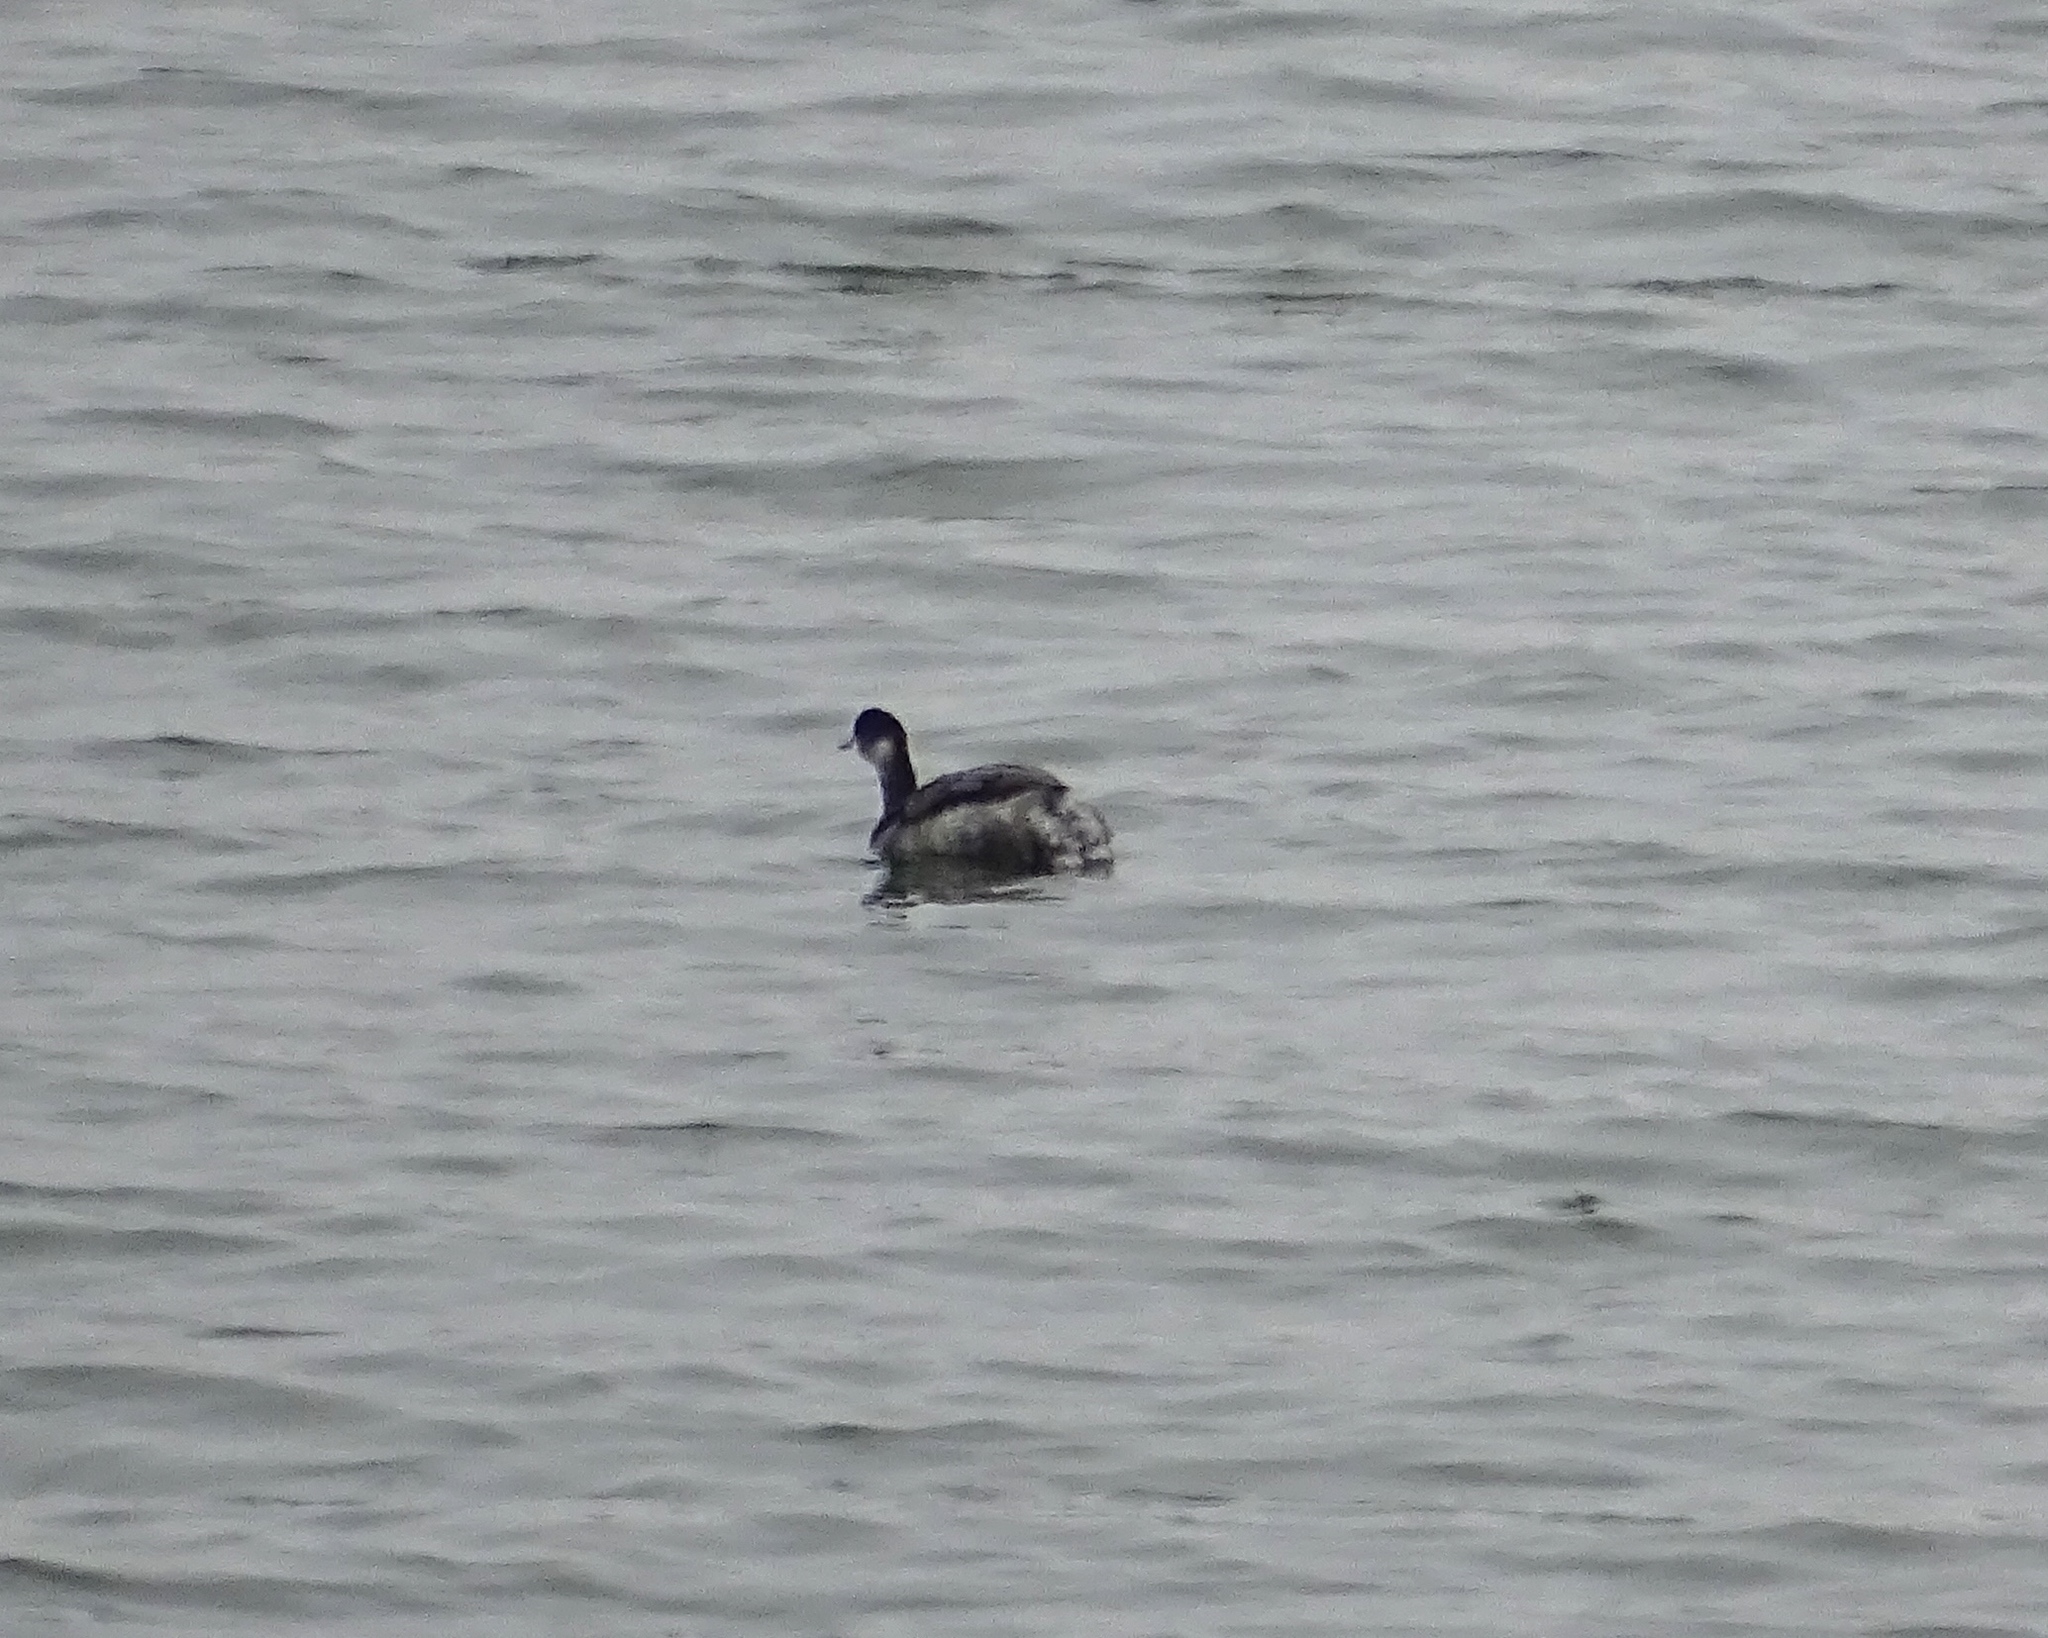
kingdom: Animalia
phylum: Chordata
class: Aves
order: Podicipediformes
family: Podicipedidae
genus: Podiceps
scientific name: Podiceps nigricollis
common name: Black-necked grebe
